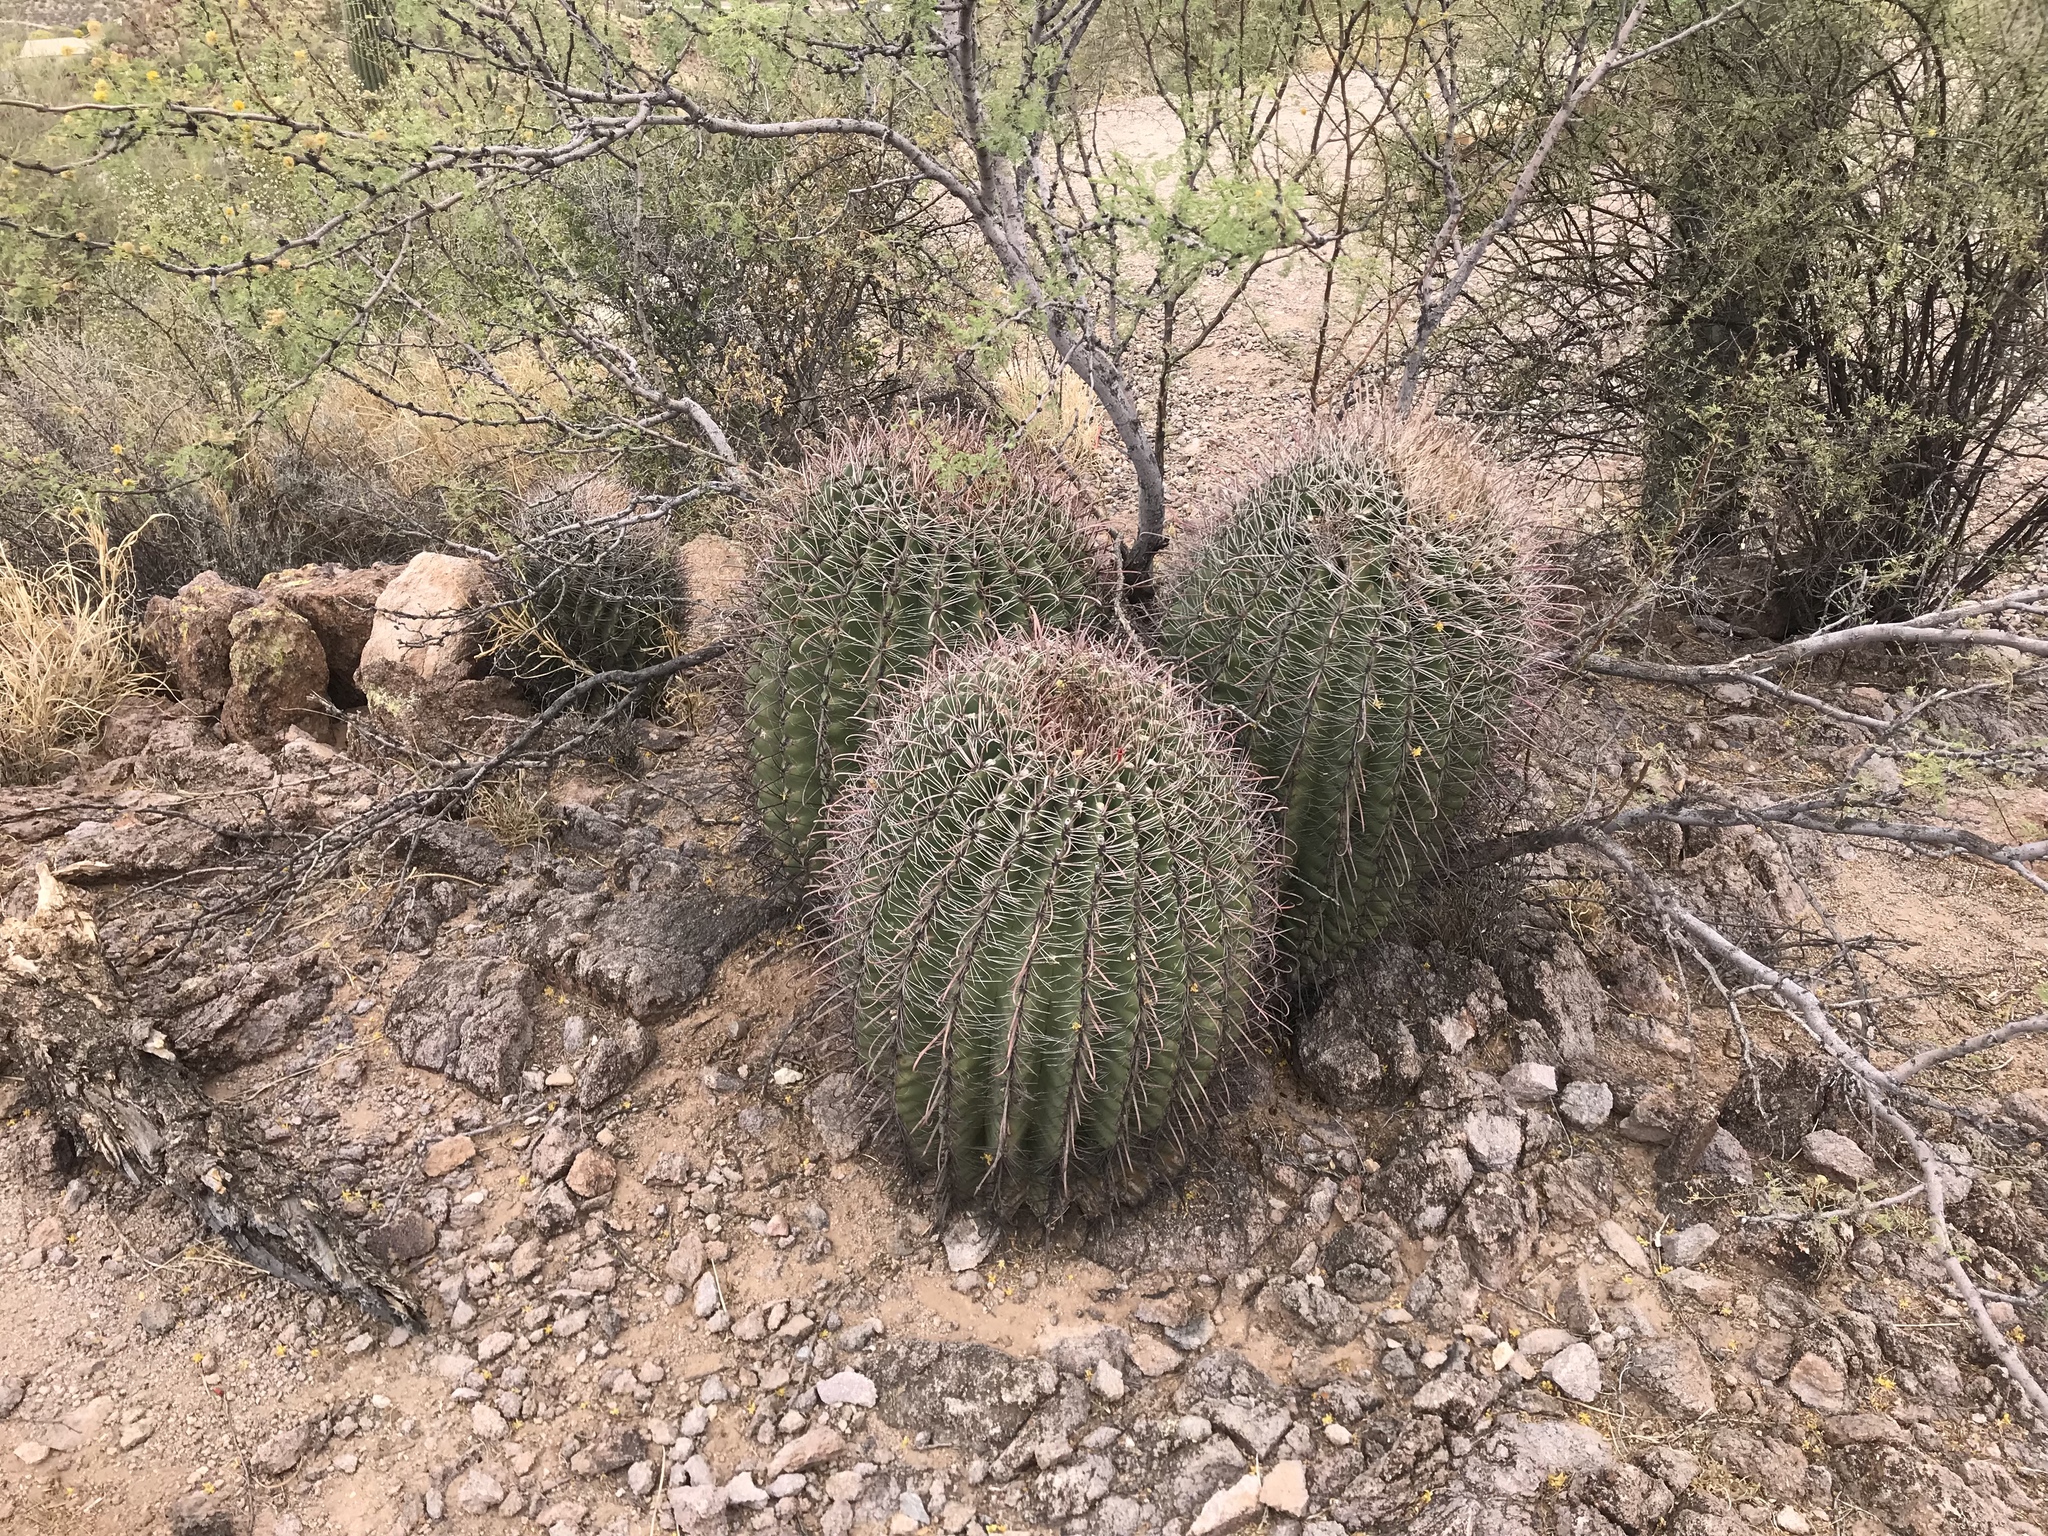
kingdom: Plantae
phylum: Tracheophyta
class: Magnoliopsida
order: Caryophyllales
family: Cactaceae
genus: Ferocactus
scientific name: Ferocactus wislizeni
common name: Candy barrel cactus
